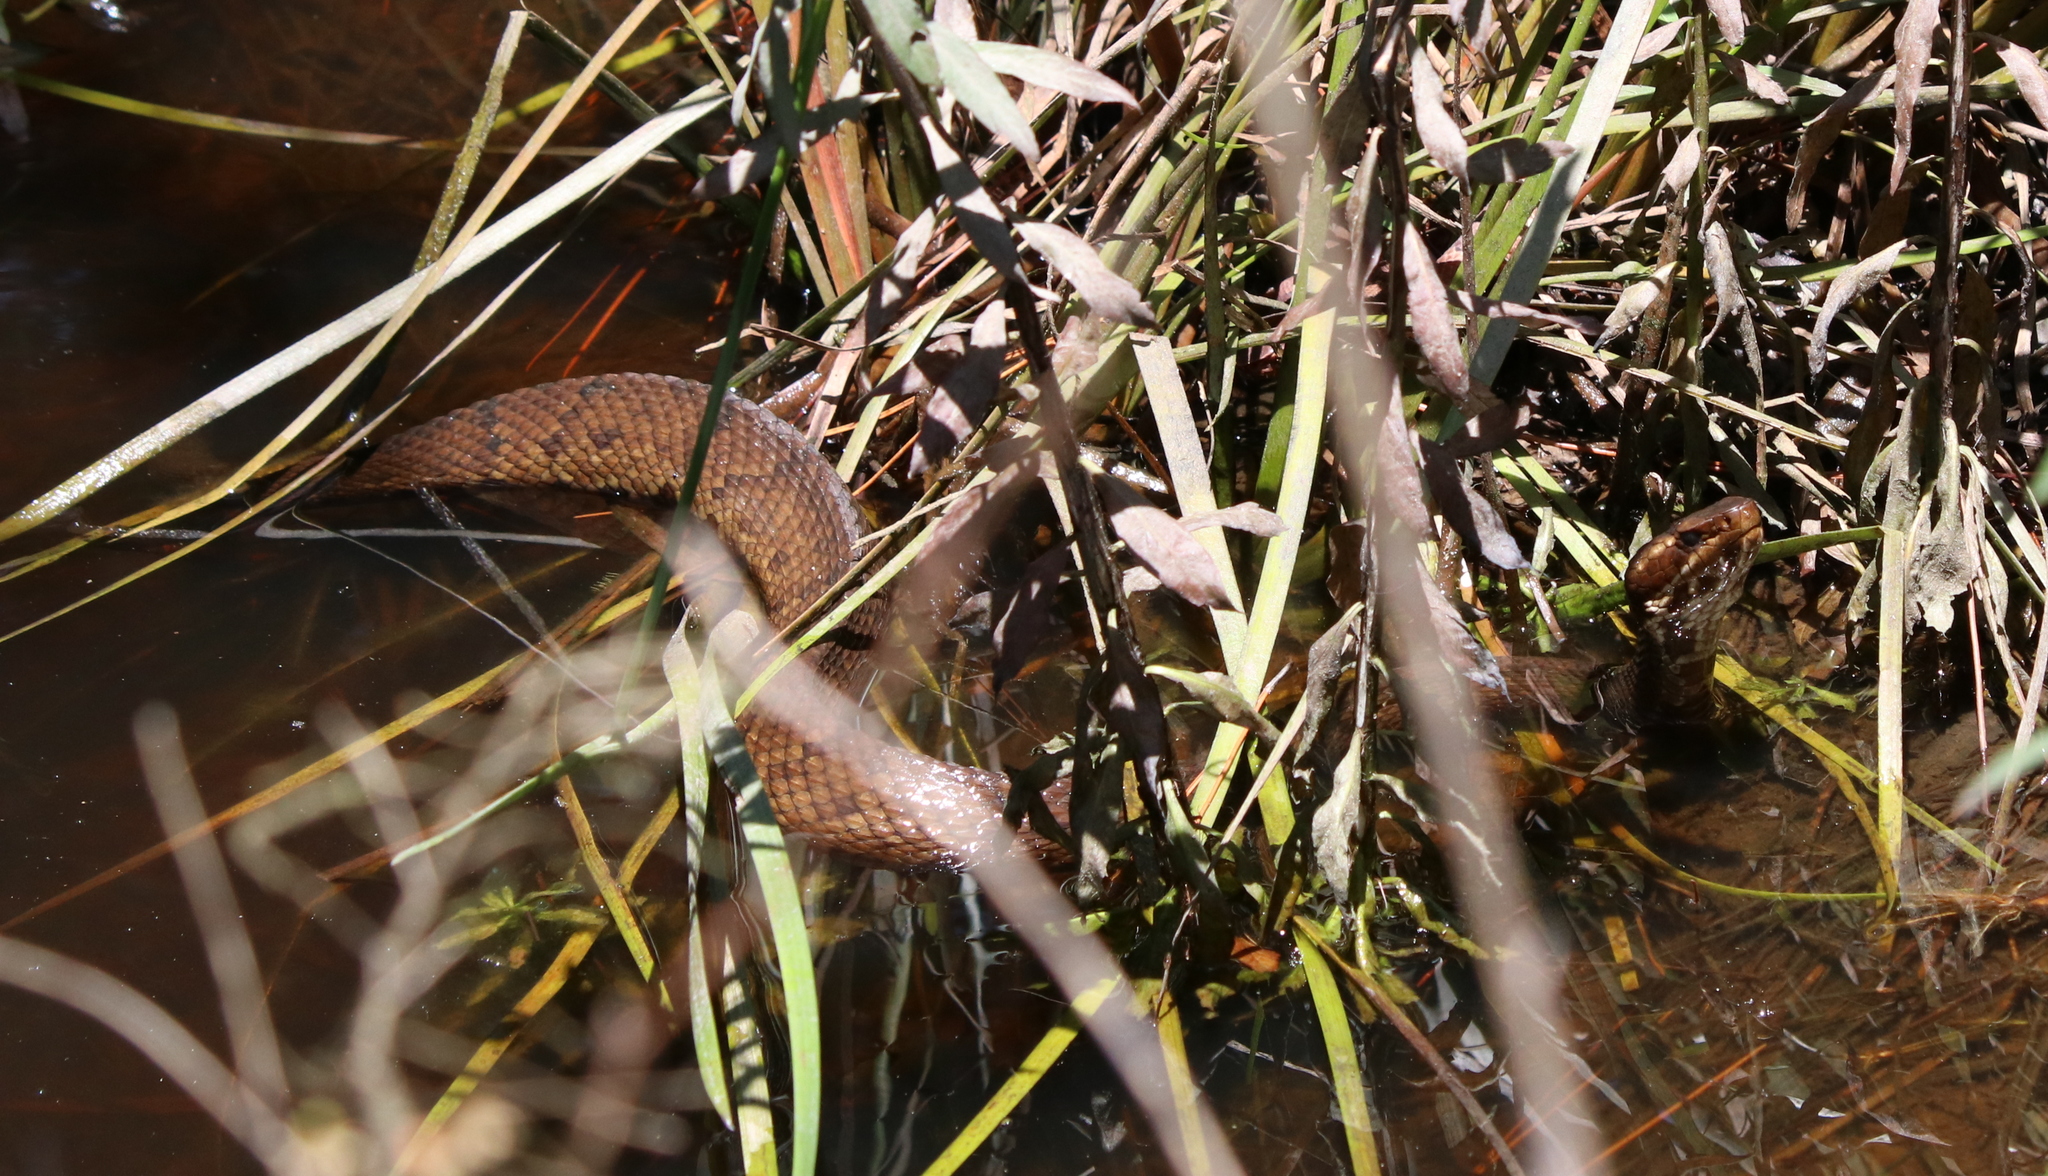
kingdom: Animalia
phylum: Chordata
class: Squamata
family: Viperidae
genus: Agkistrodon
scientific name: Agkistrodon piscivorus
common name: Cottonmouth
